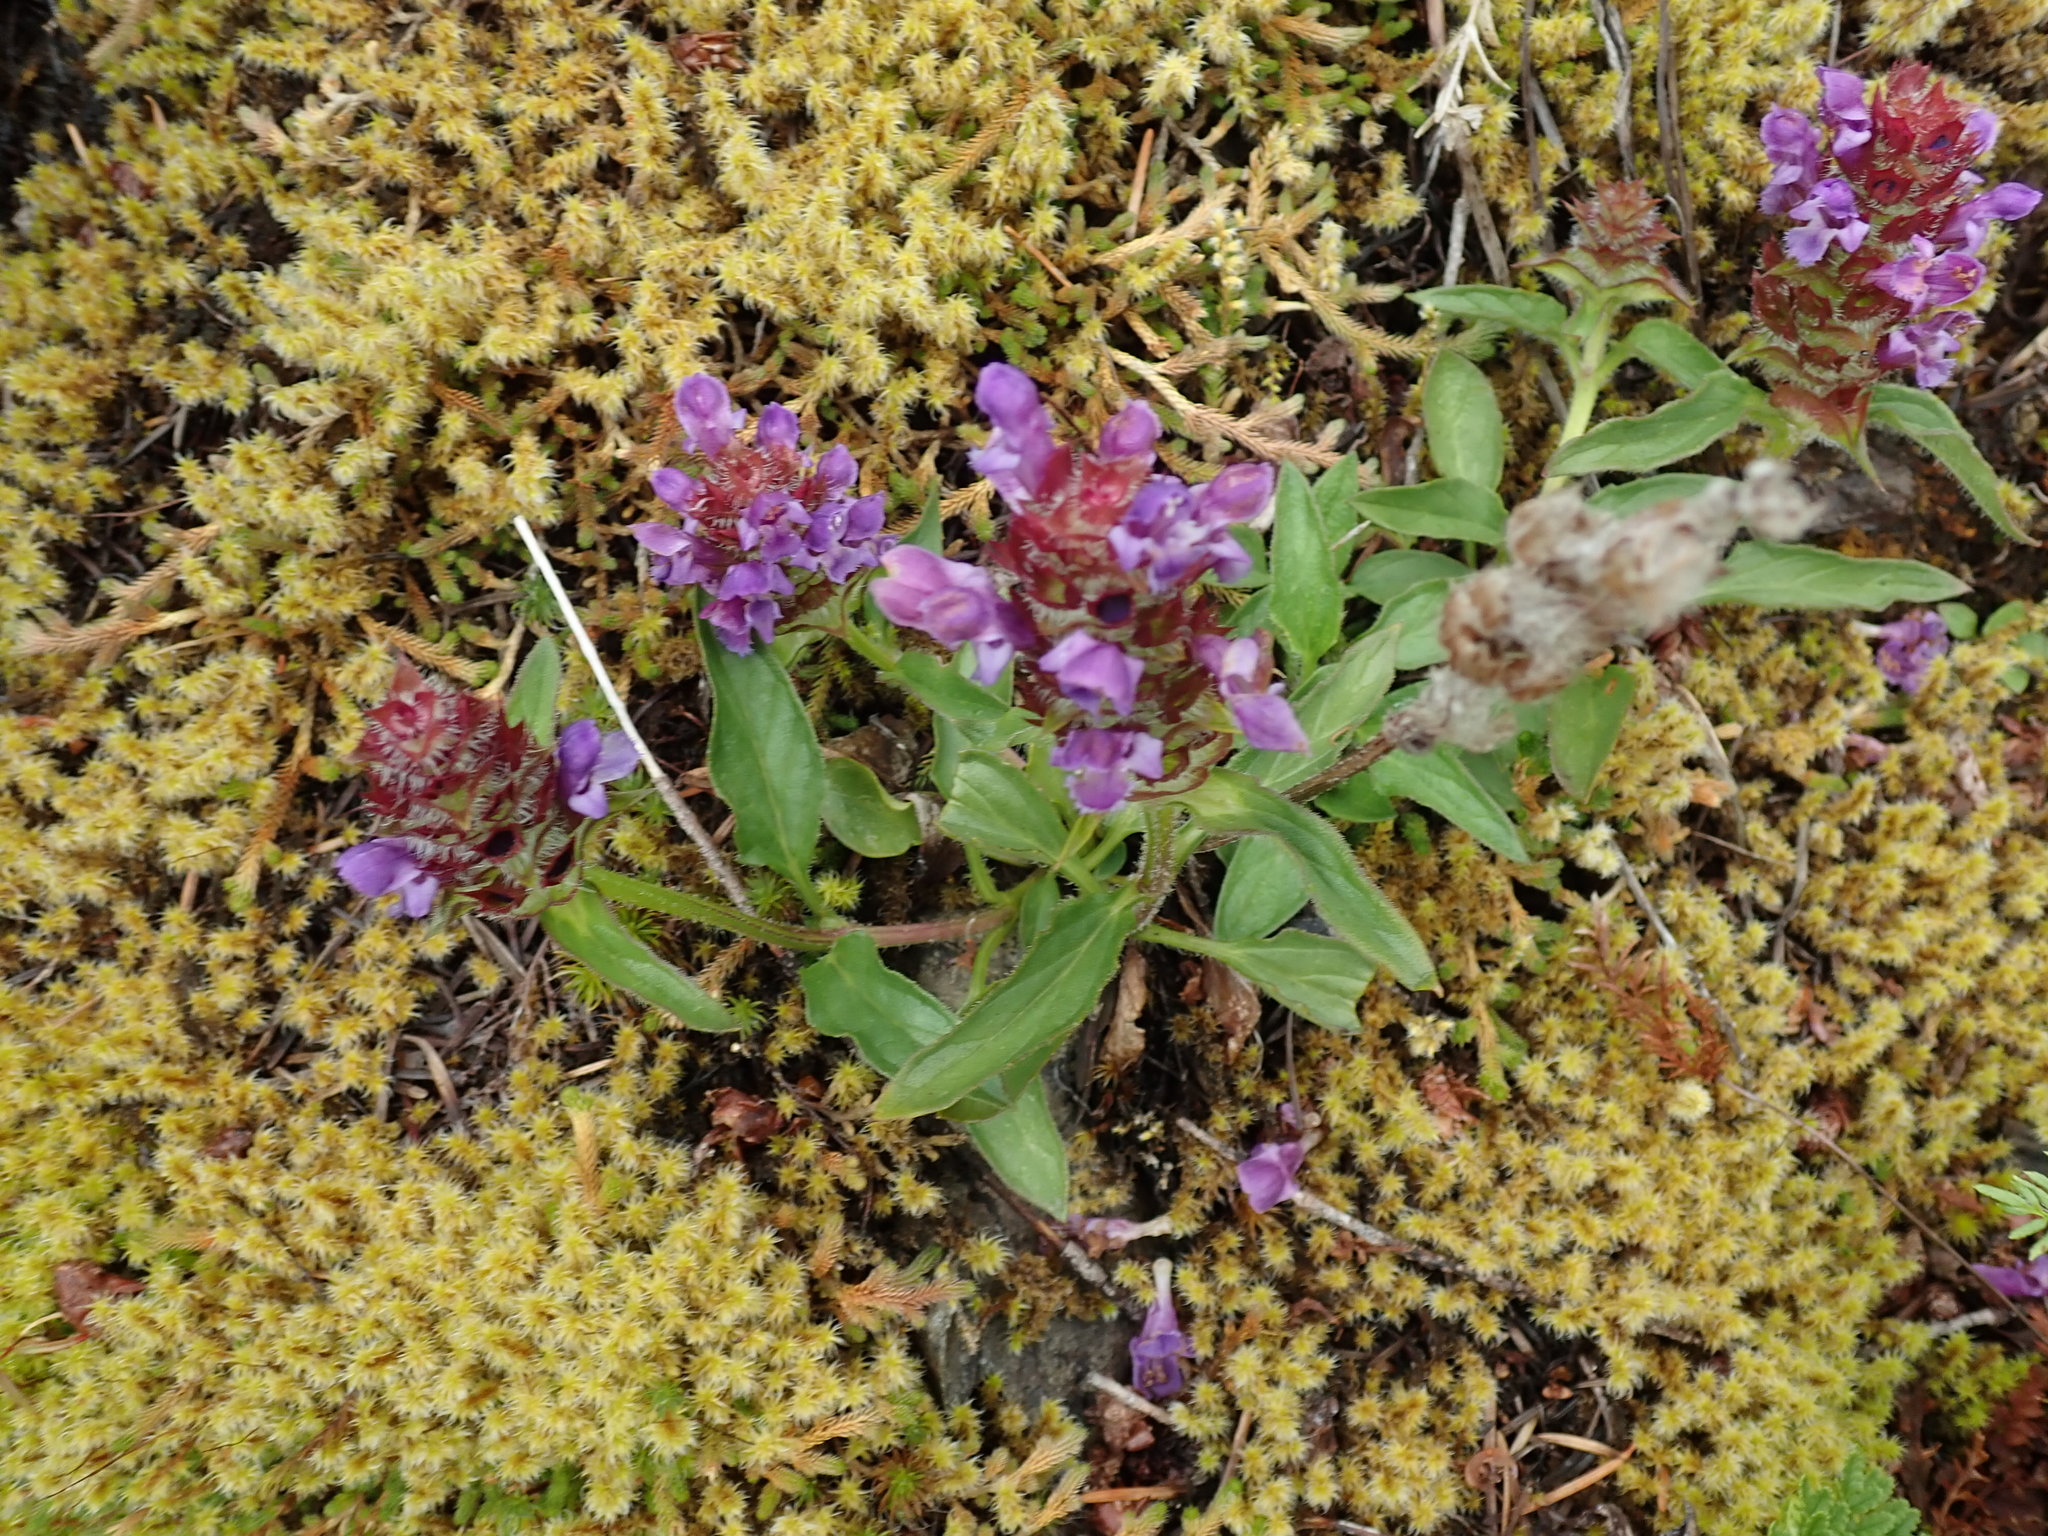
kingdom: Plantae
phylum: Tracheophyta
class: Magnoliopsida
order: Lamiales
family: Lamiaceae
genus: Prunella
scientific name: Prunella vulgaris
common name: Heal-all
